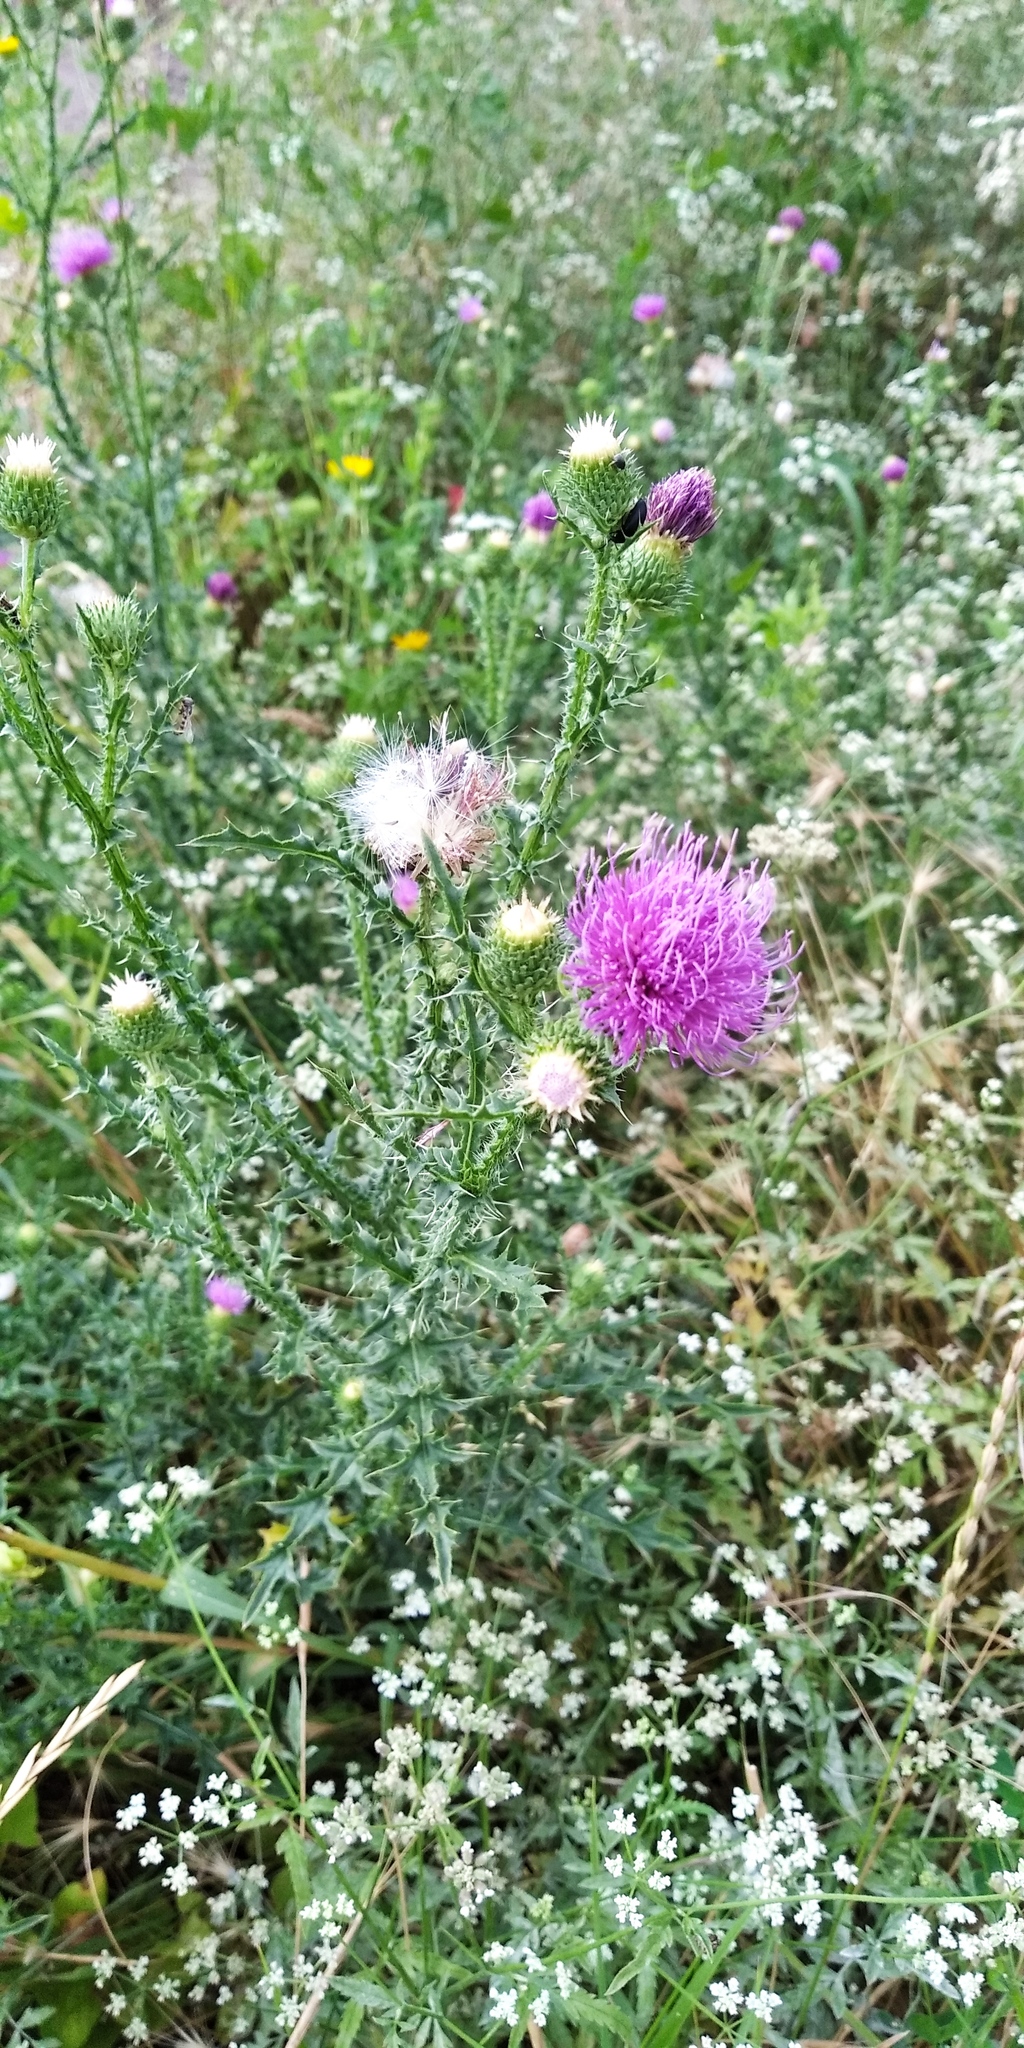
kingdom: Plantae
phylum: Tracheophyta
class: Magnoliopsida
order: Asterales
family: Asteraceae
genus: Carduus
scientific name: Carduus acanthoides
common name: Plumeless thistle
